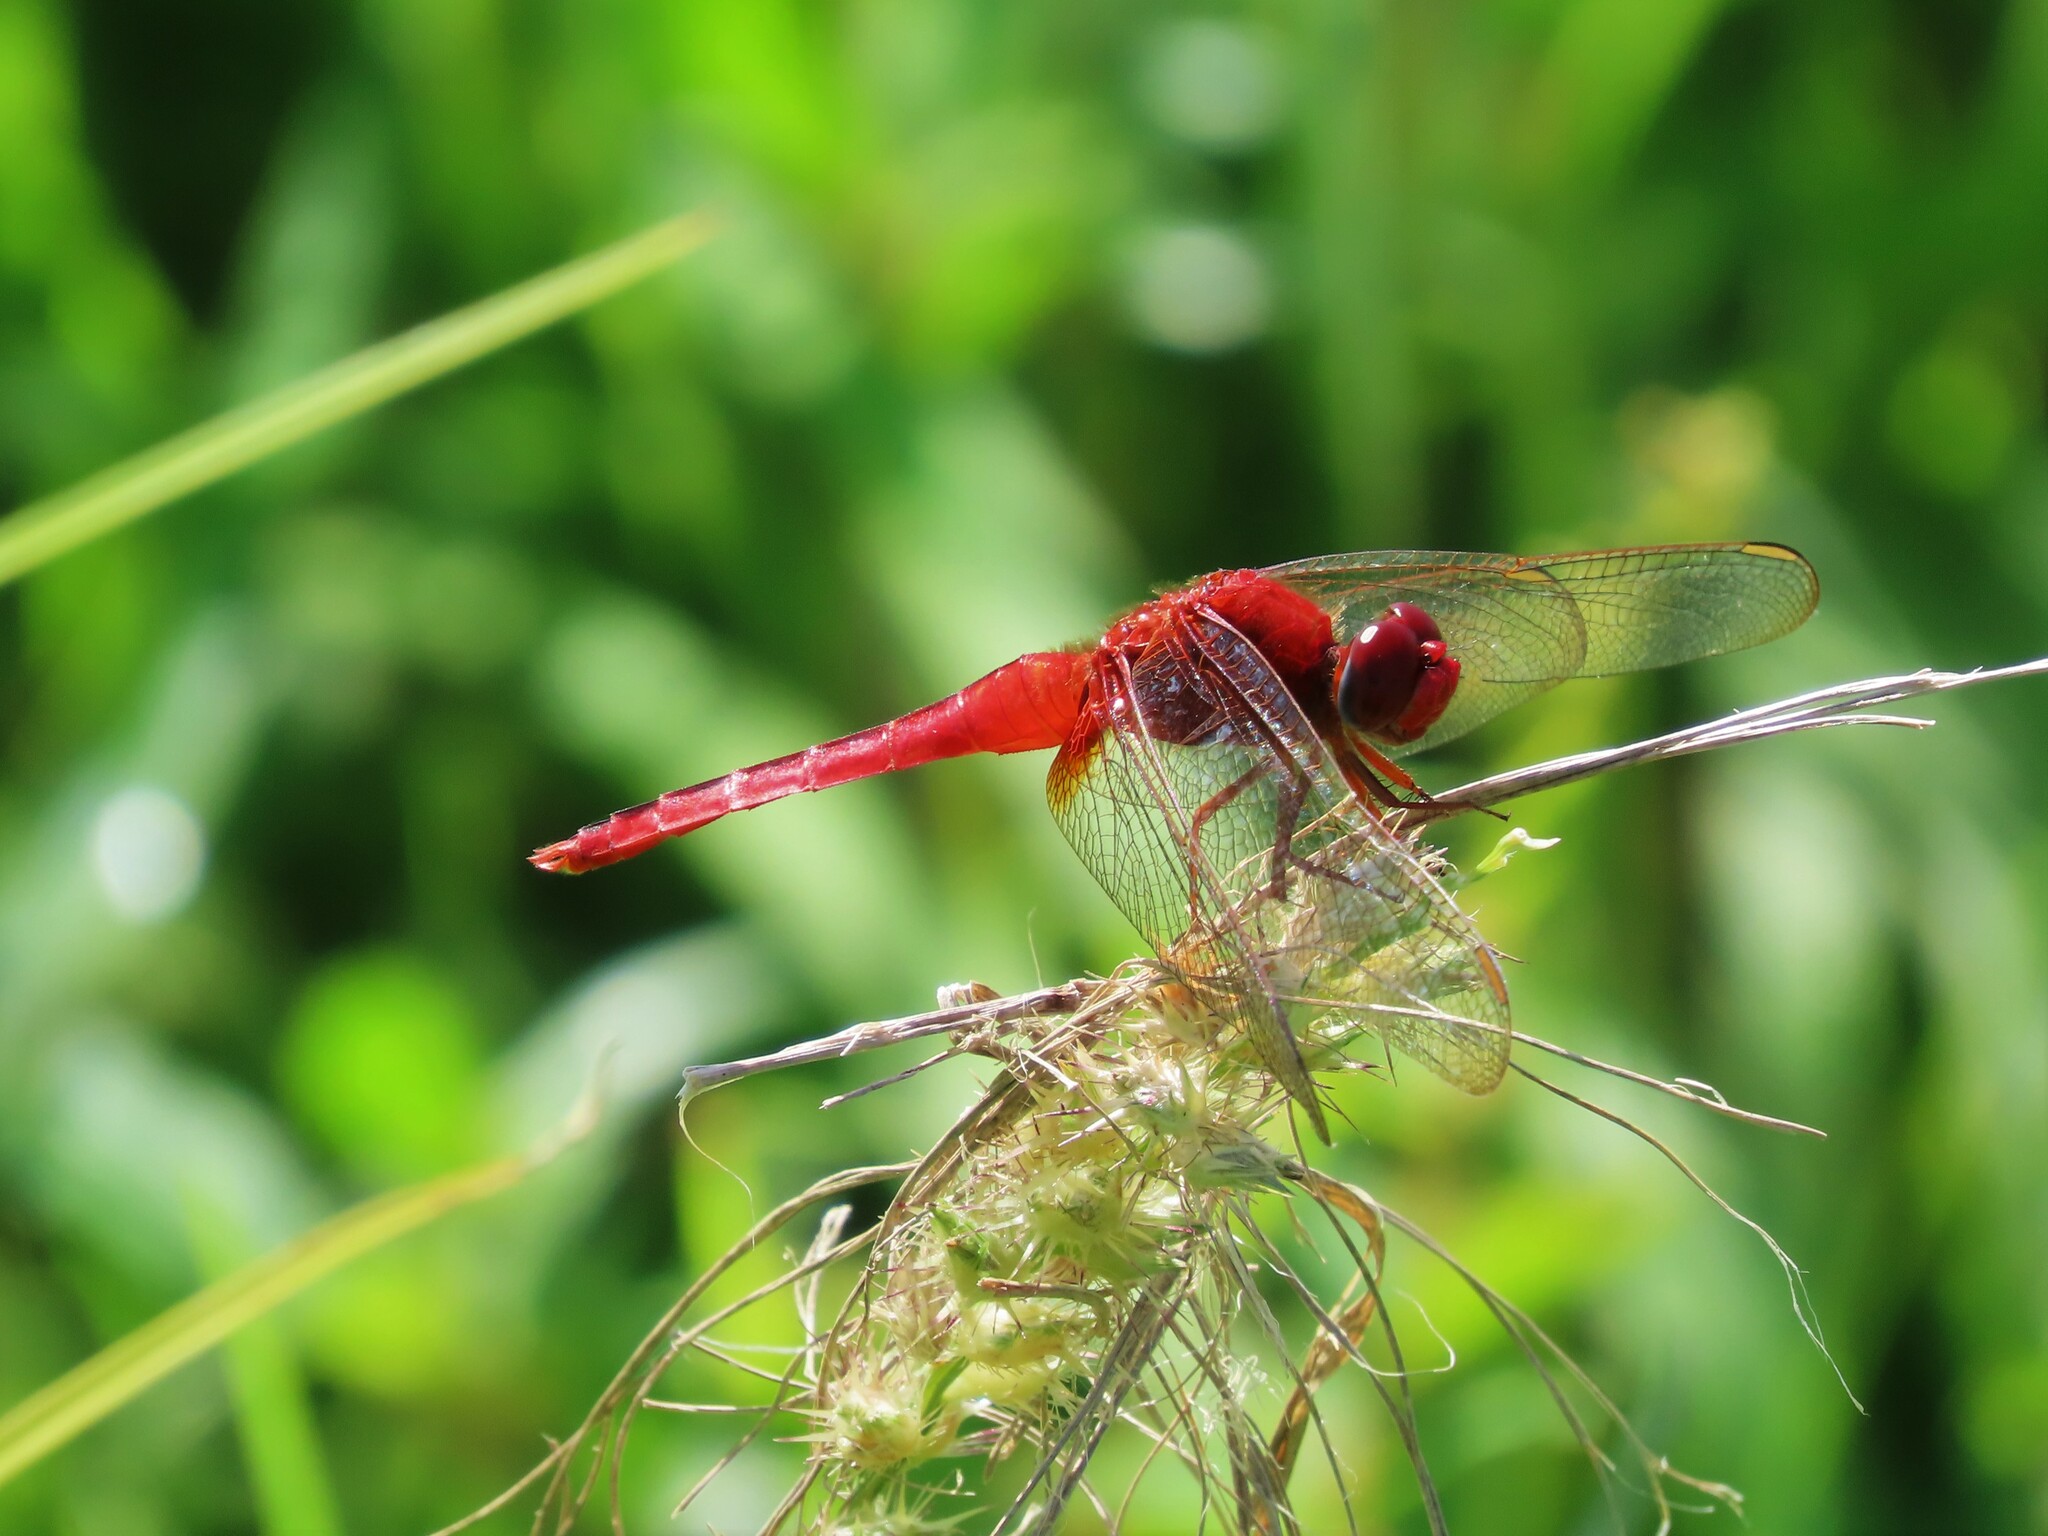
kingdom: Animalia
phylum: Arthropoda
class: Insecta
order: Odonata
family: Libellulidae
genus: Crocothemis
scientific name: Crocothemis servilia
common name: Scarlet skimmer
